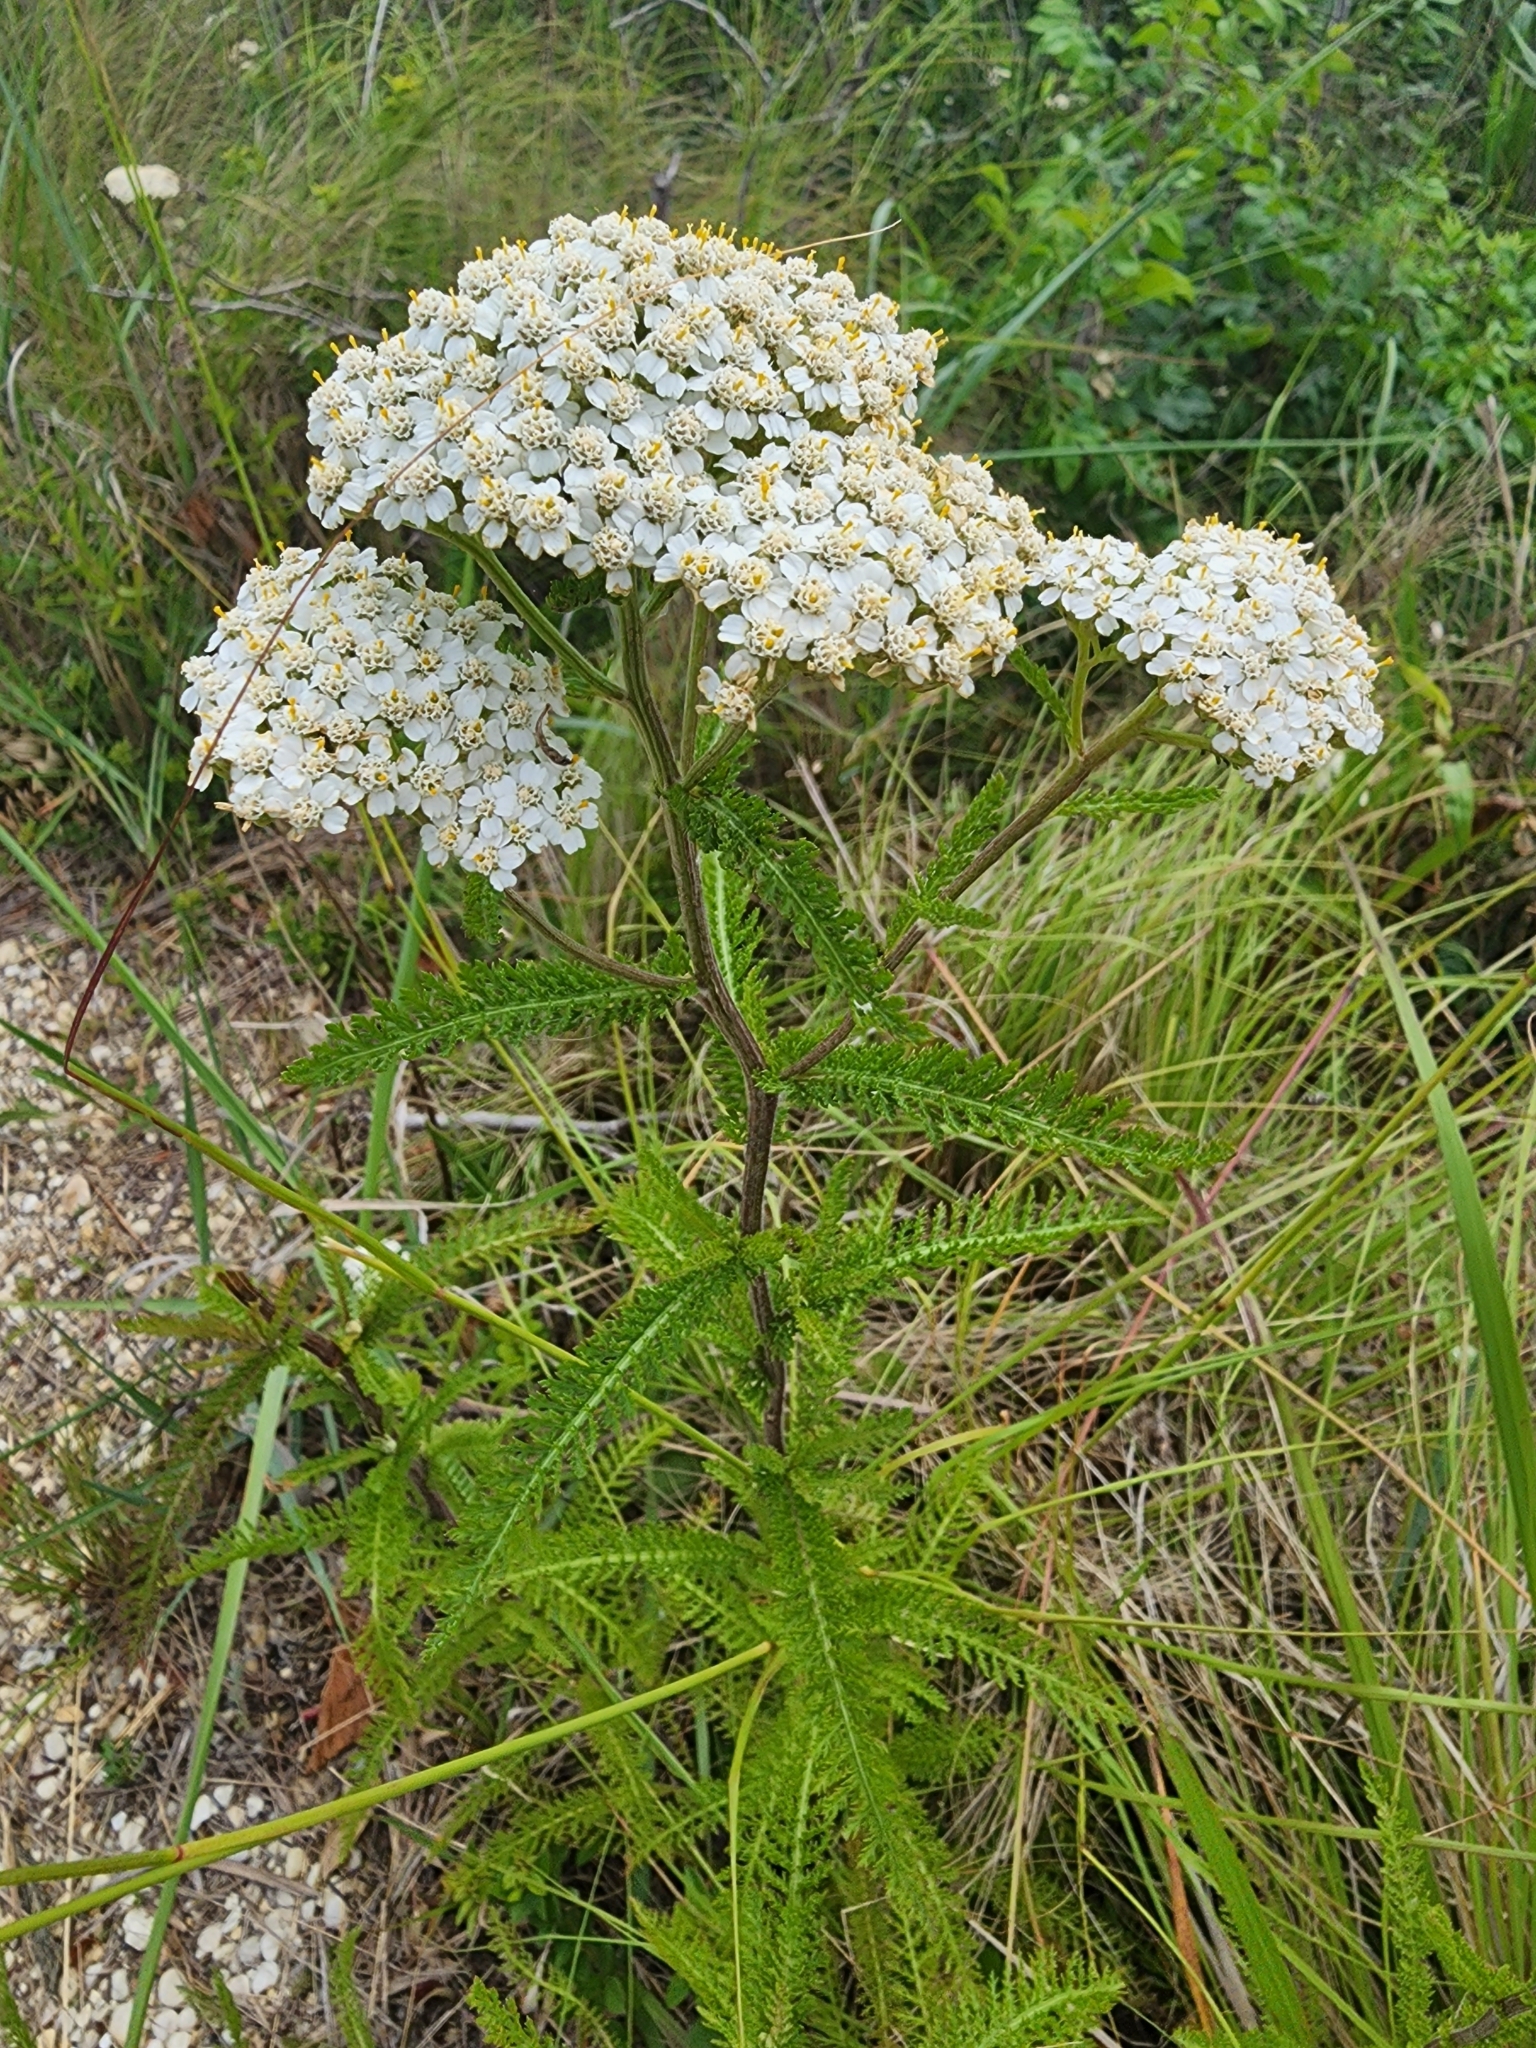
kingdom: Plantae
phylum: Tracheophyta
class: Magnoliopsida
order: Asterales
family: Asteraceae
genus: Achillea
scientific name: Achillea millefolium
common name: Yarrow
